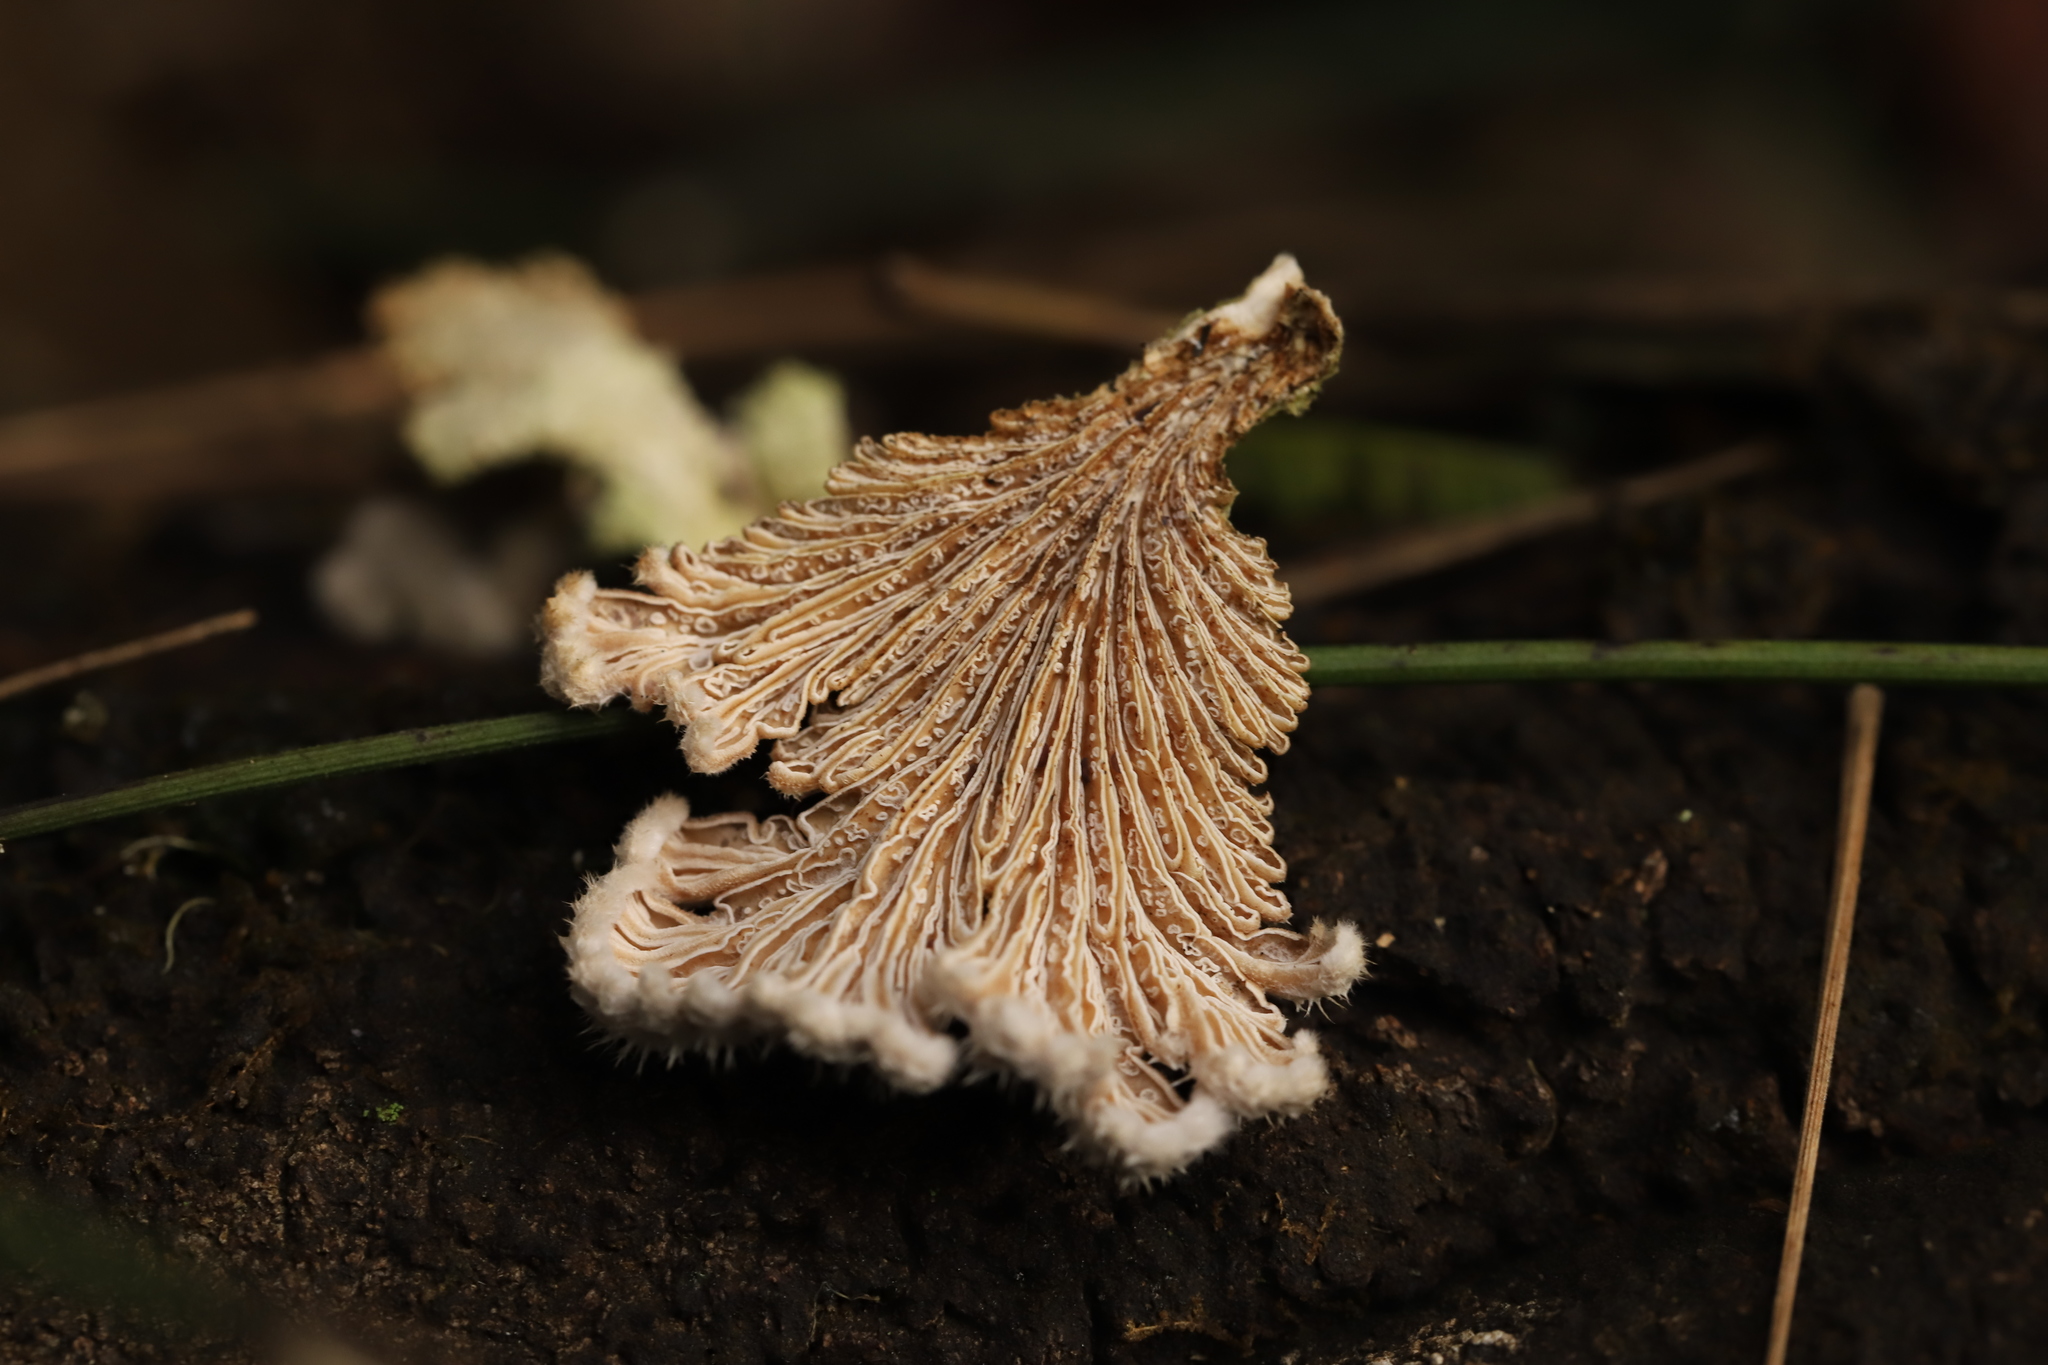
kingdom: Fungi
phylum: Basidiomycota
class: Agaricomycetes
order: Agaricales
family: Schizophyllaceae
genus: Schizophyllum
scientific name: Schizophyllum commune
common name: Common porecrust
